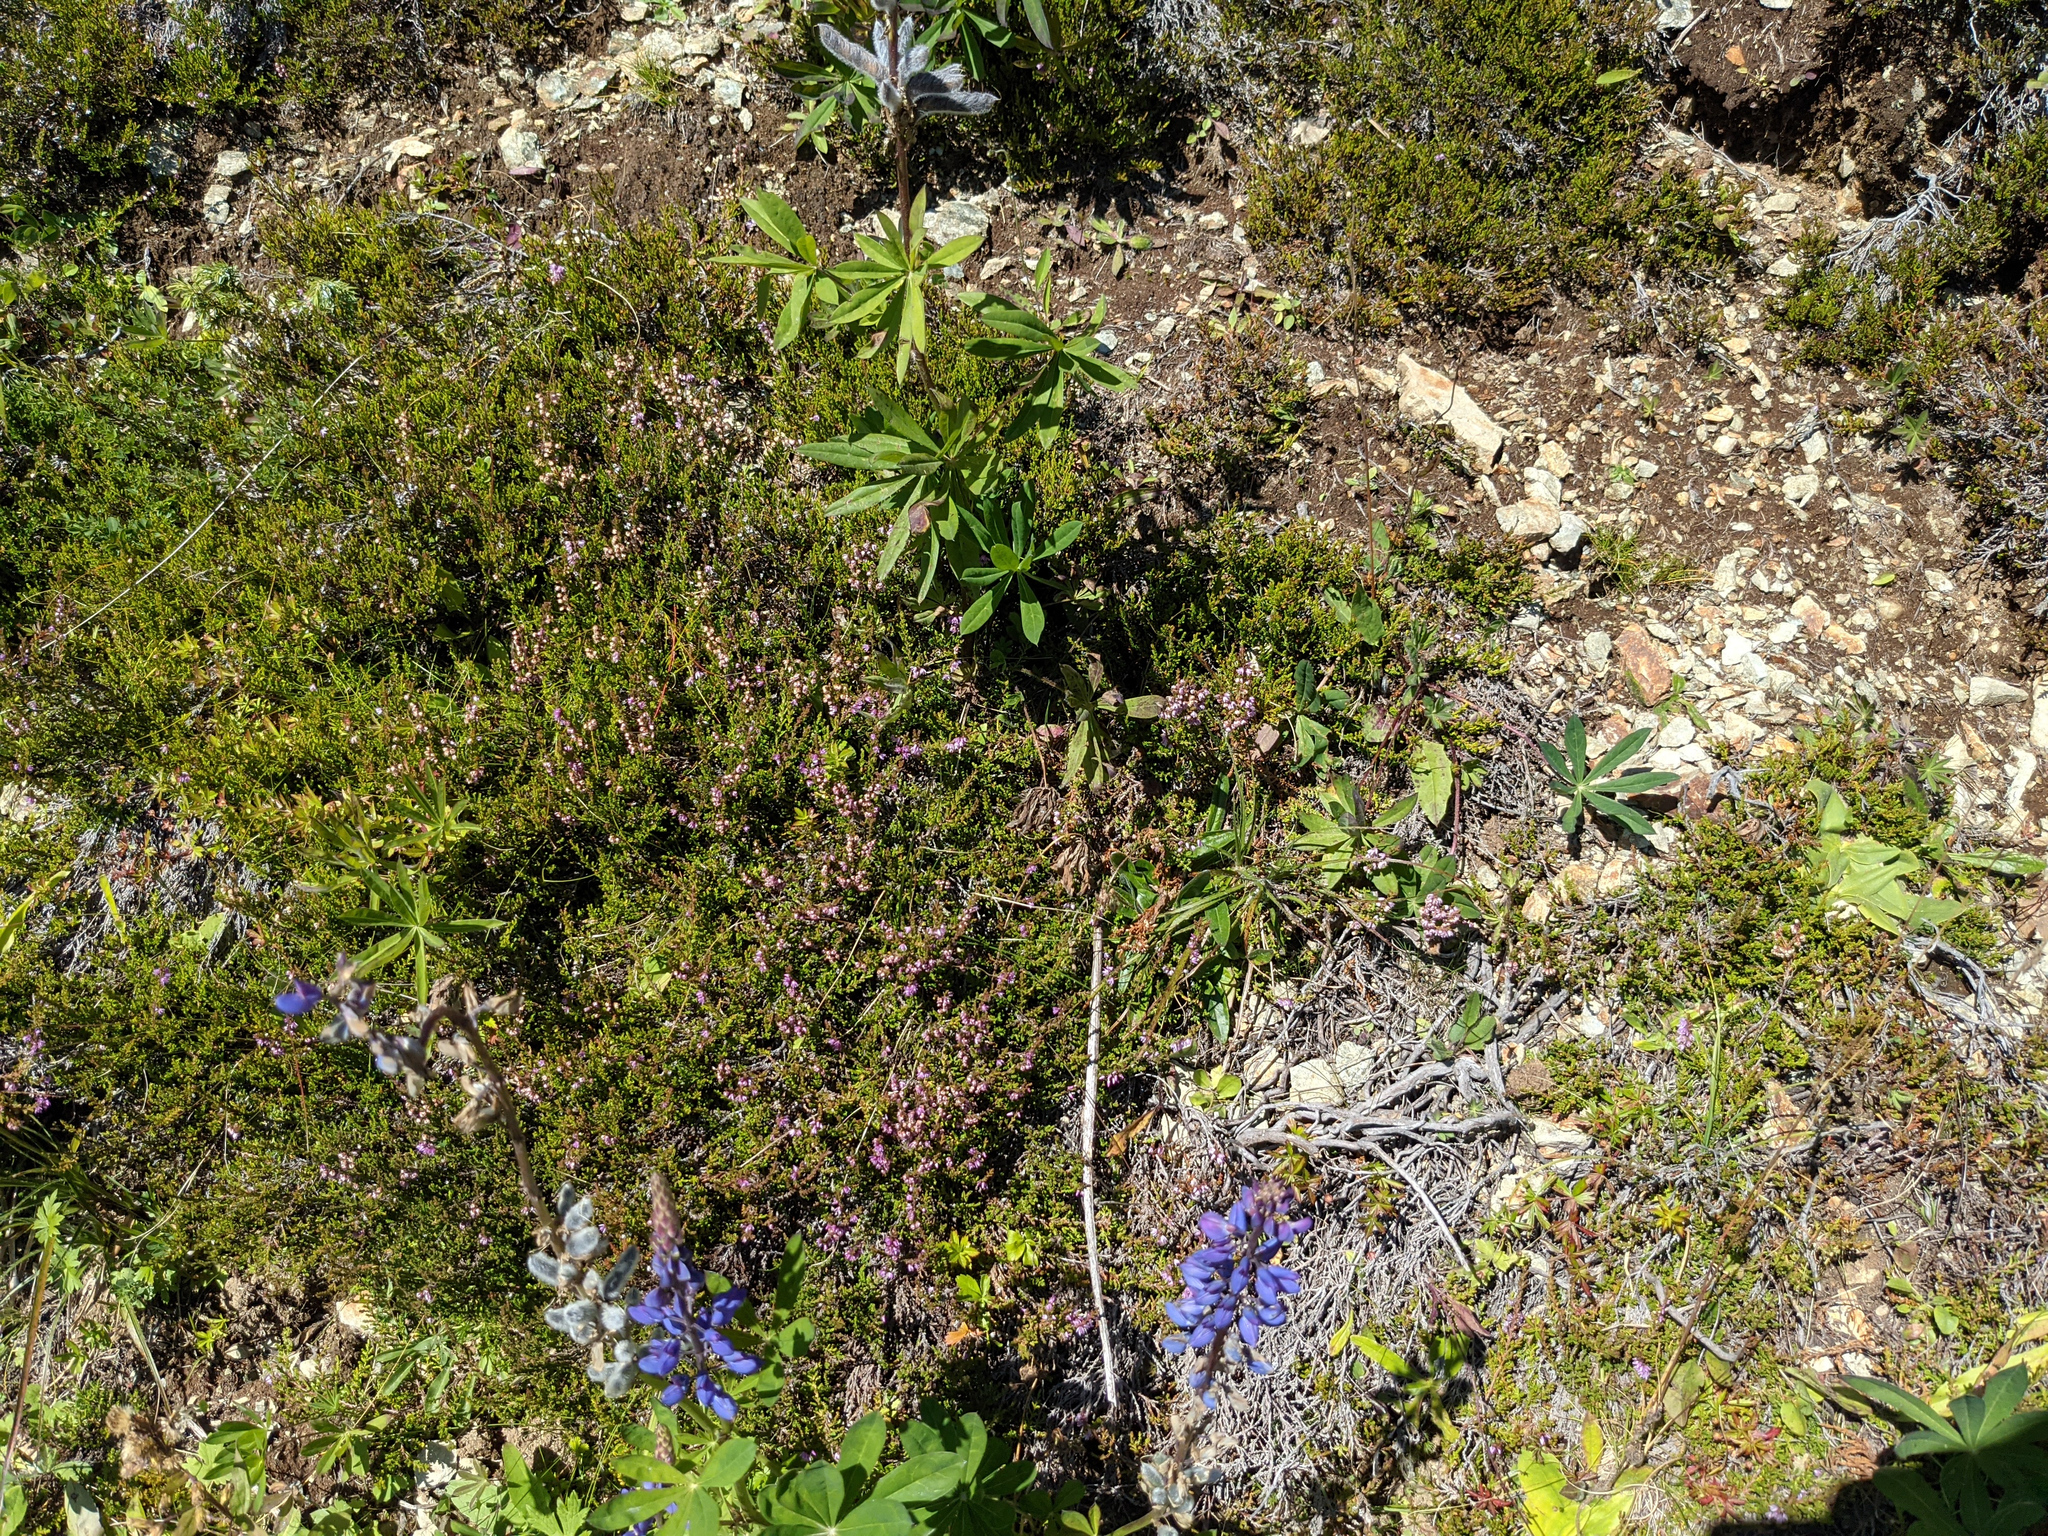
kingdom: Plantae
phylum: Tracheophyta
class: Magnoliopsida
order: Ericales
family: Ericaceae
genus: Calluna
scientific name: Calluna vulgaris
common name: Heather
